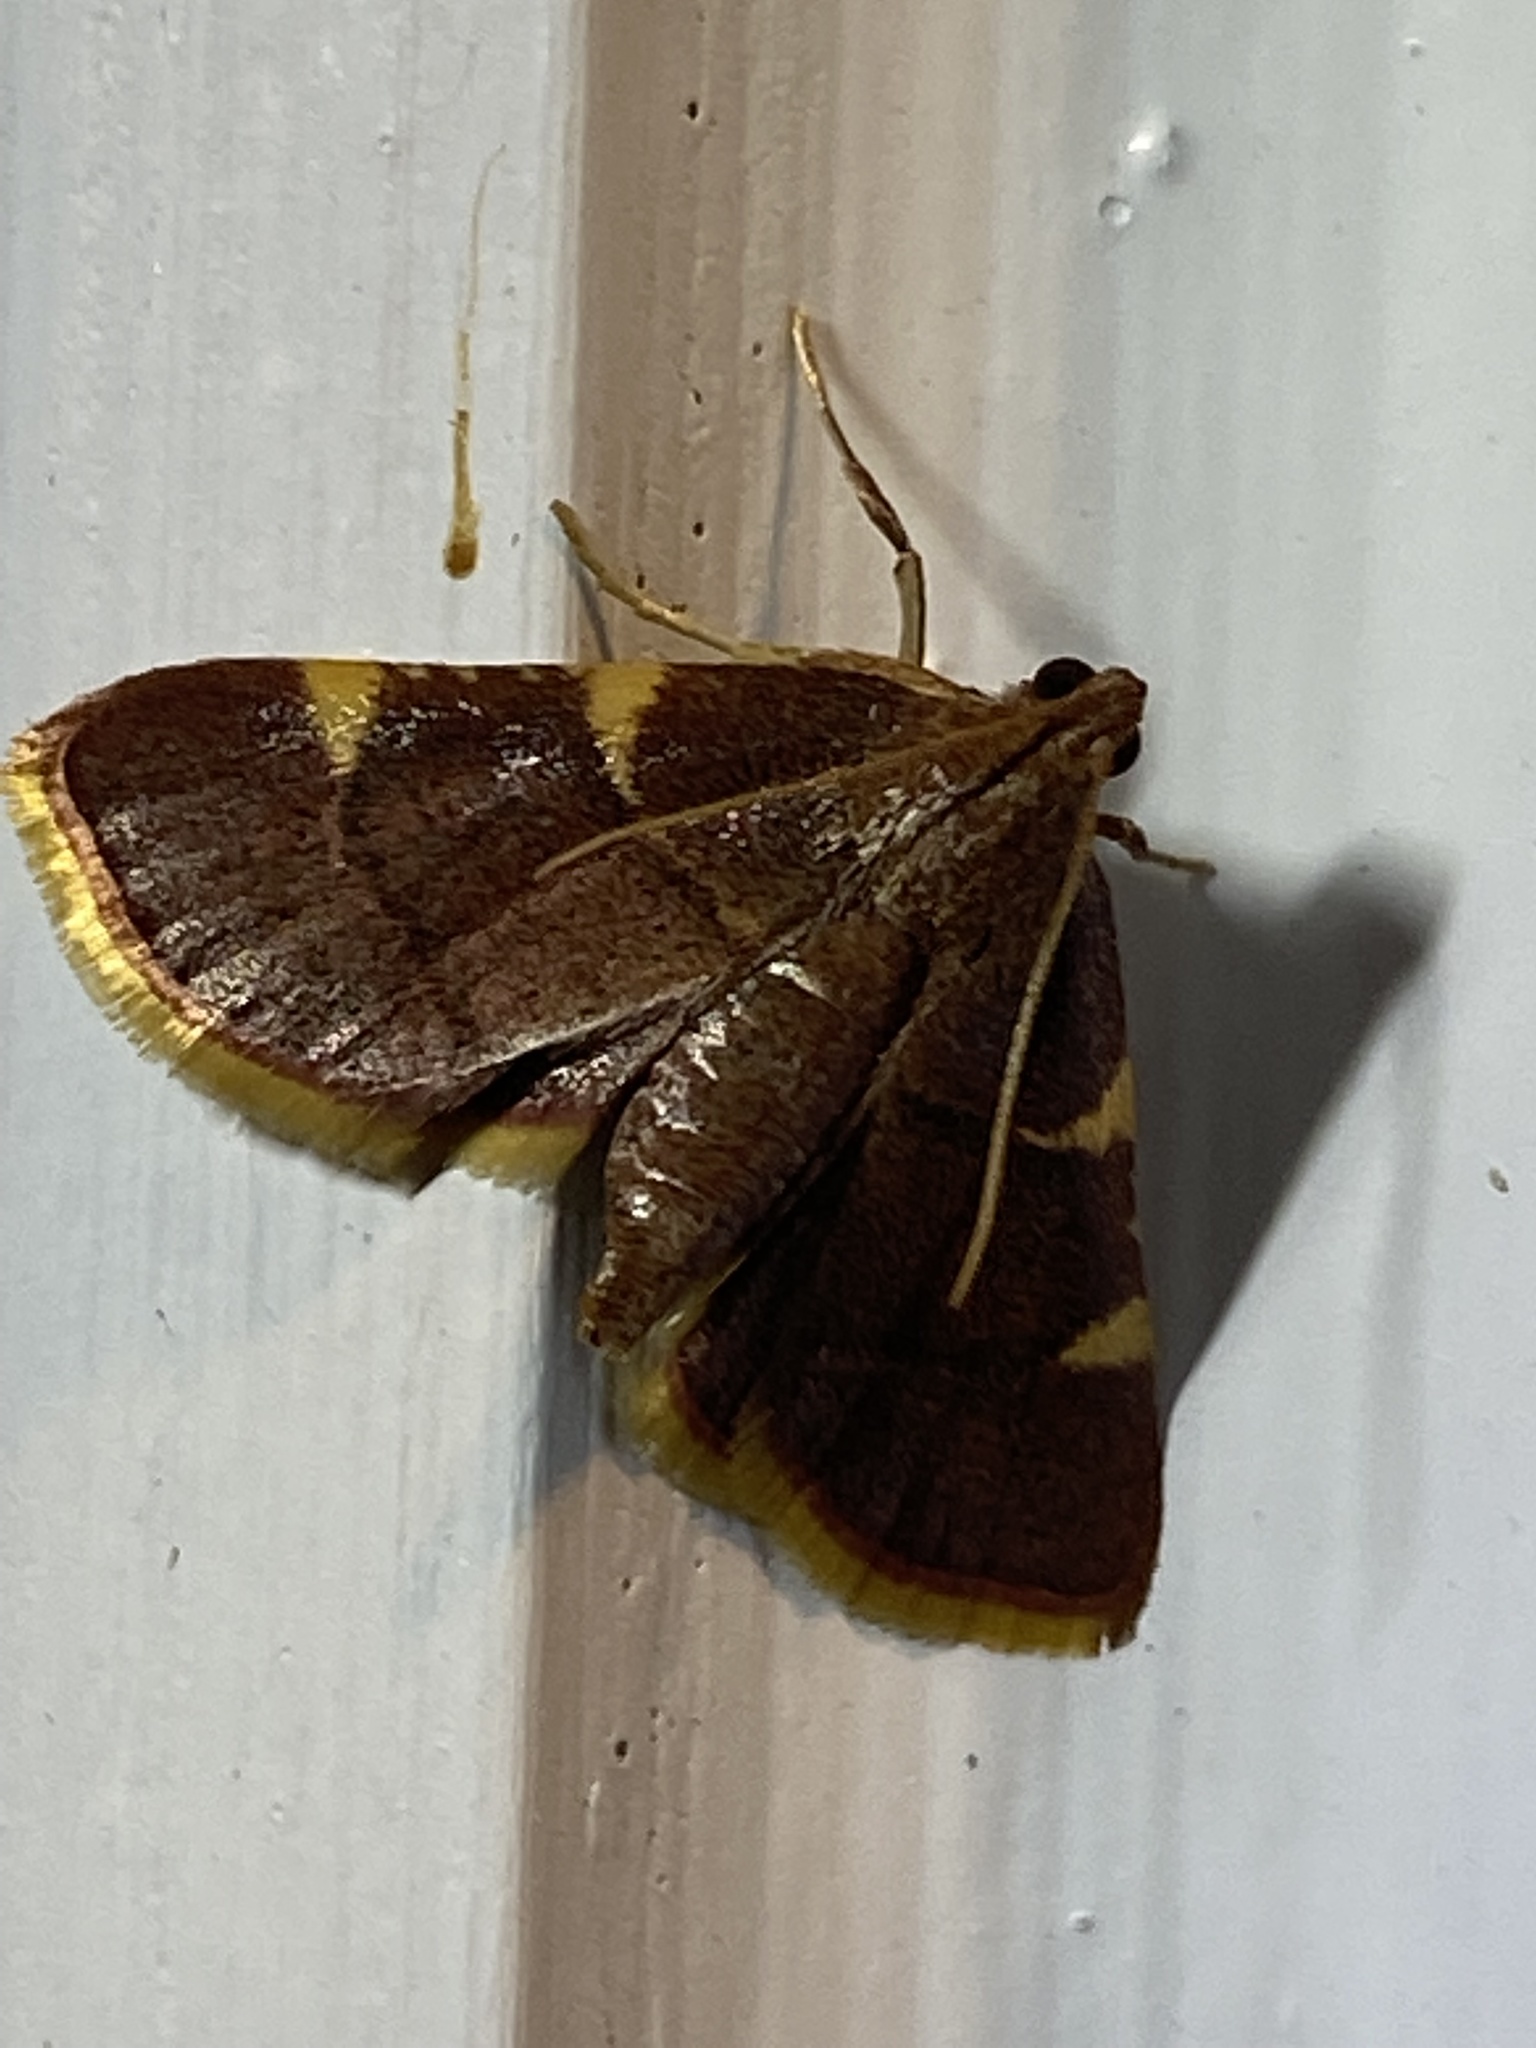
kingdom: Animalia
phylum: Arthropoda
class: Insecta
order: Lepidoptera
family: Pyralidae
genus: Hypsopygia
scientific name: Hypsopygia olinalis
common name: Yellow-fringed dolichomia moth
